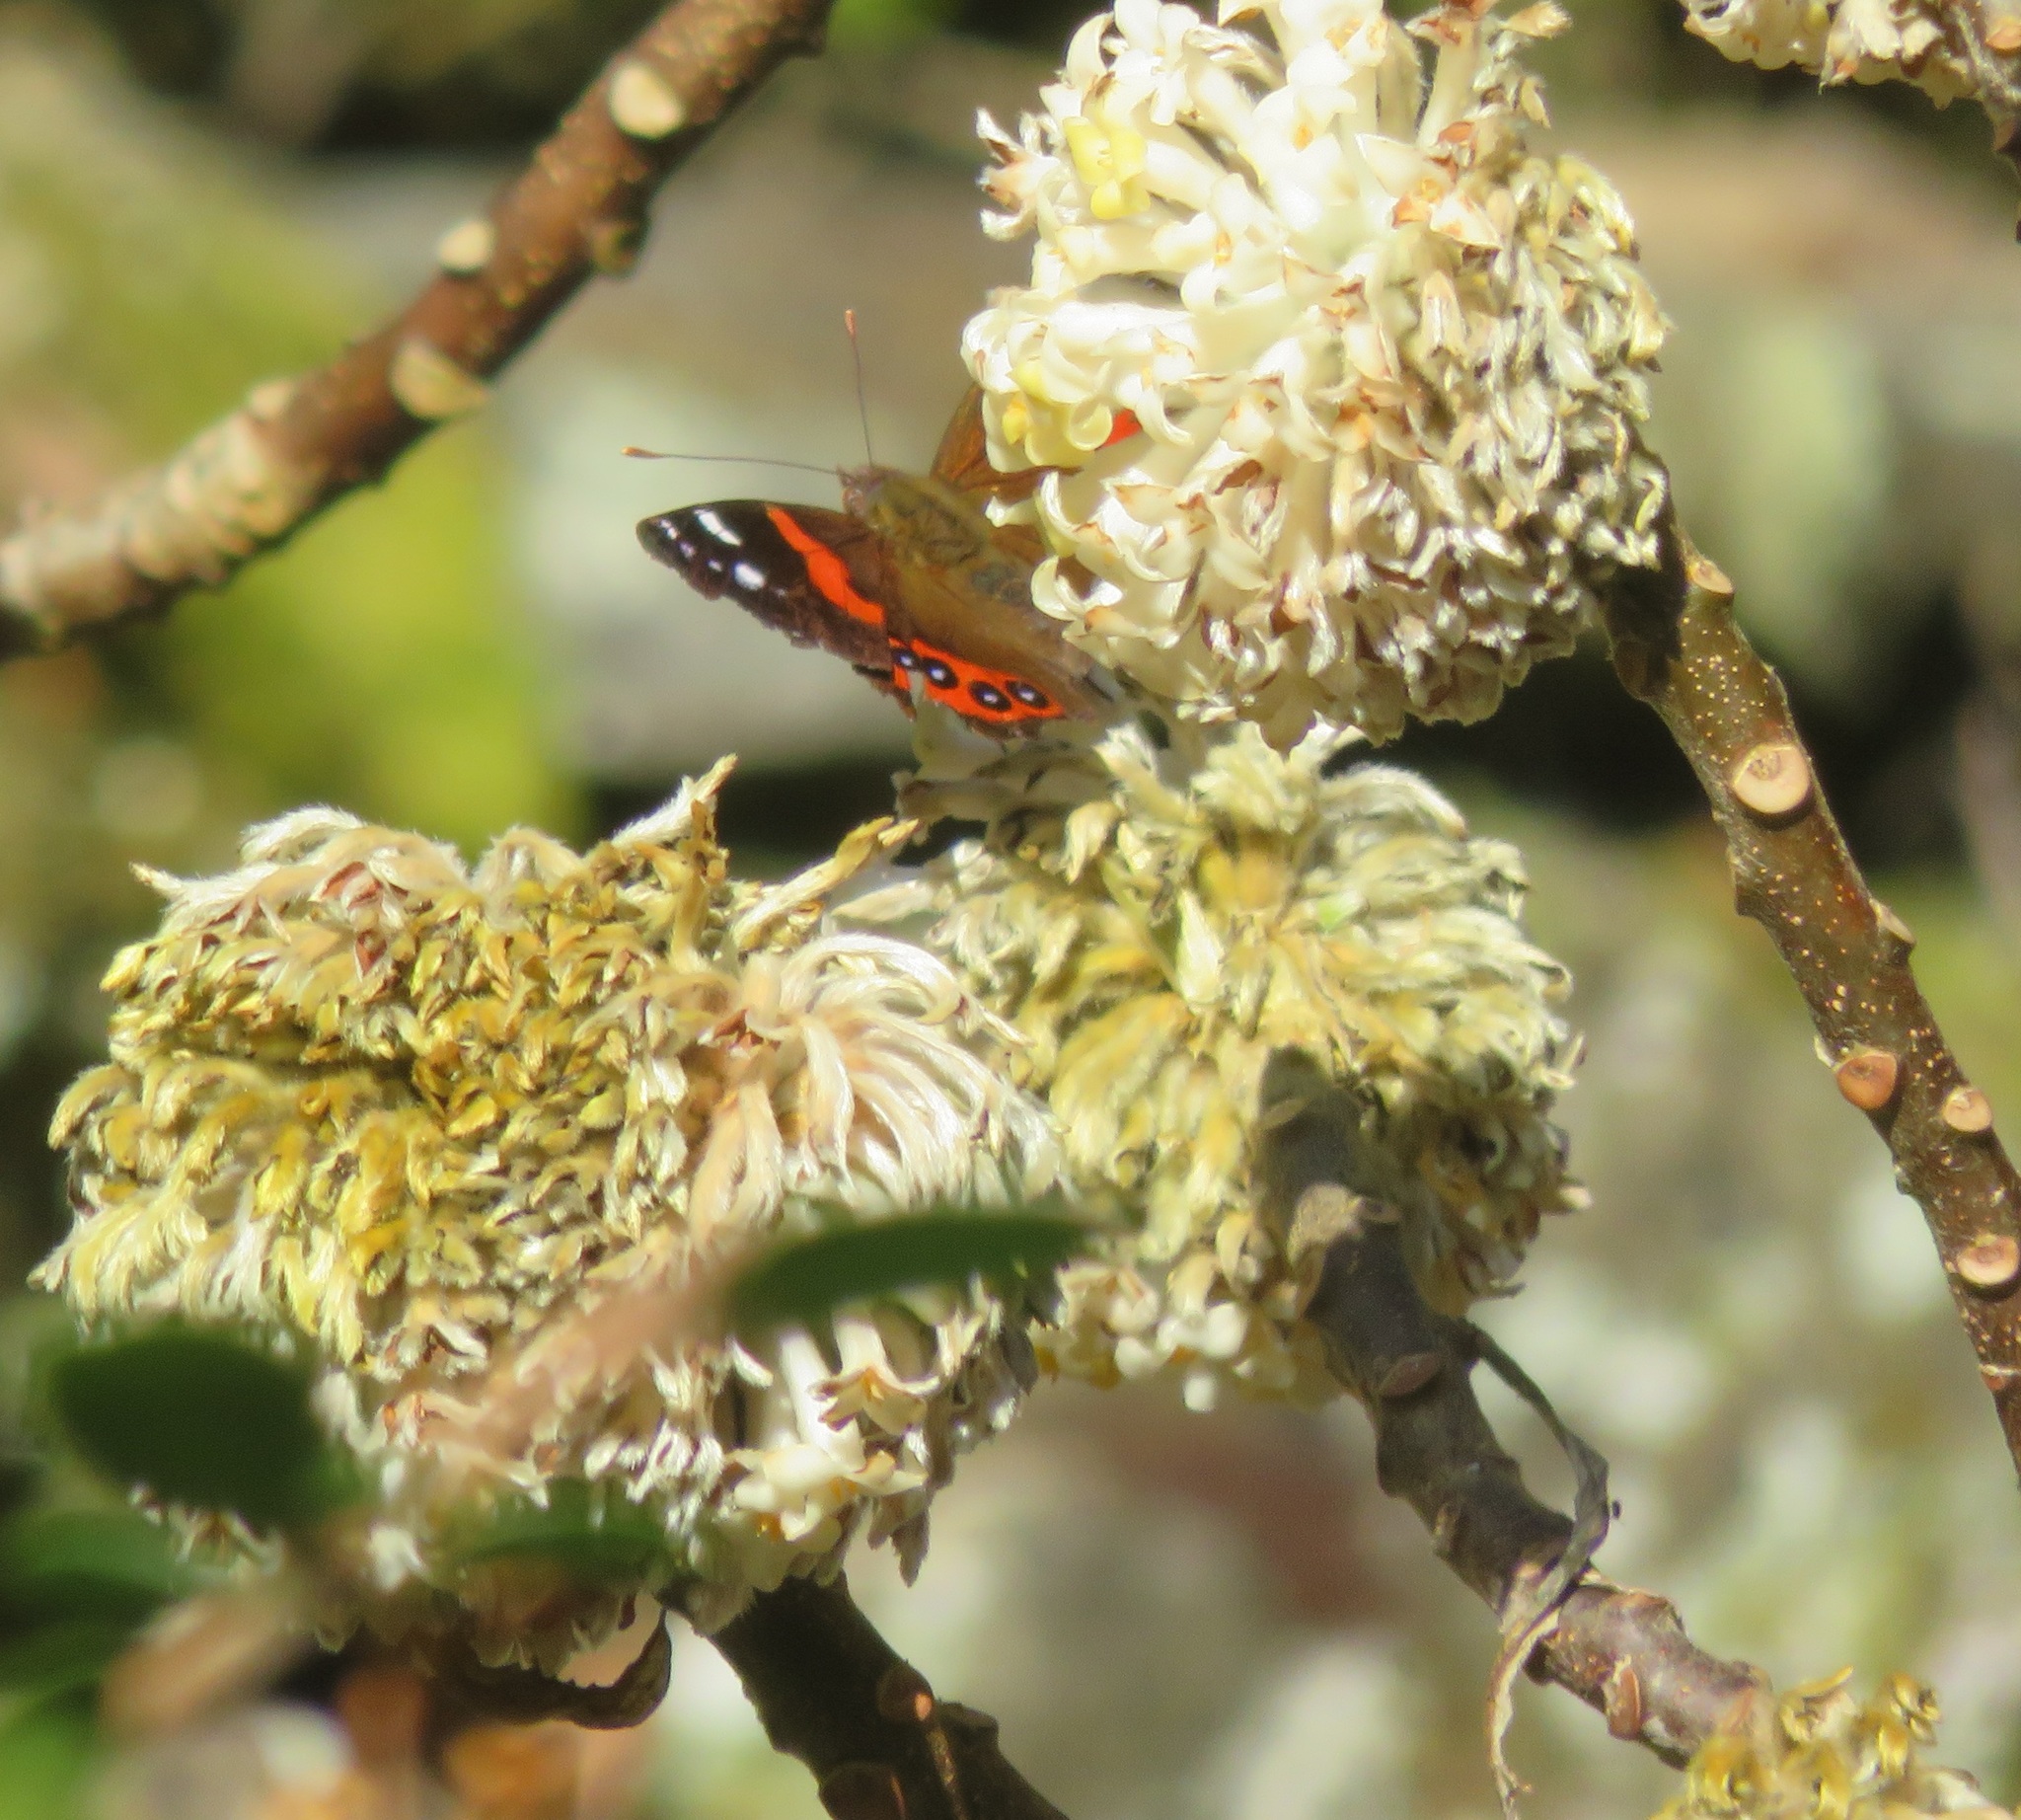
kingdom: Animalia
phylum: Arthropoda
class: Insecta
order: Lepidoptera
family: Nymphalidae
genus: Vanessa
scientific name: Vanessa gonerilla
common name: New zealand red admiral
